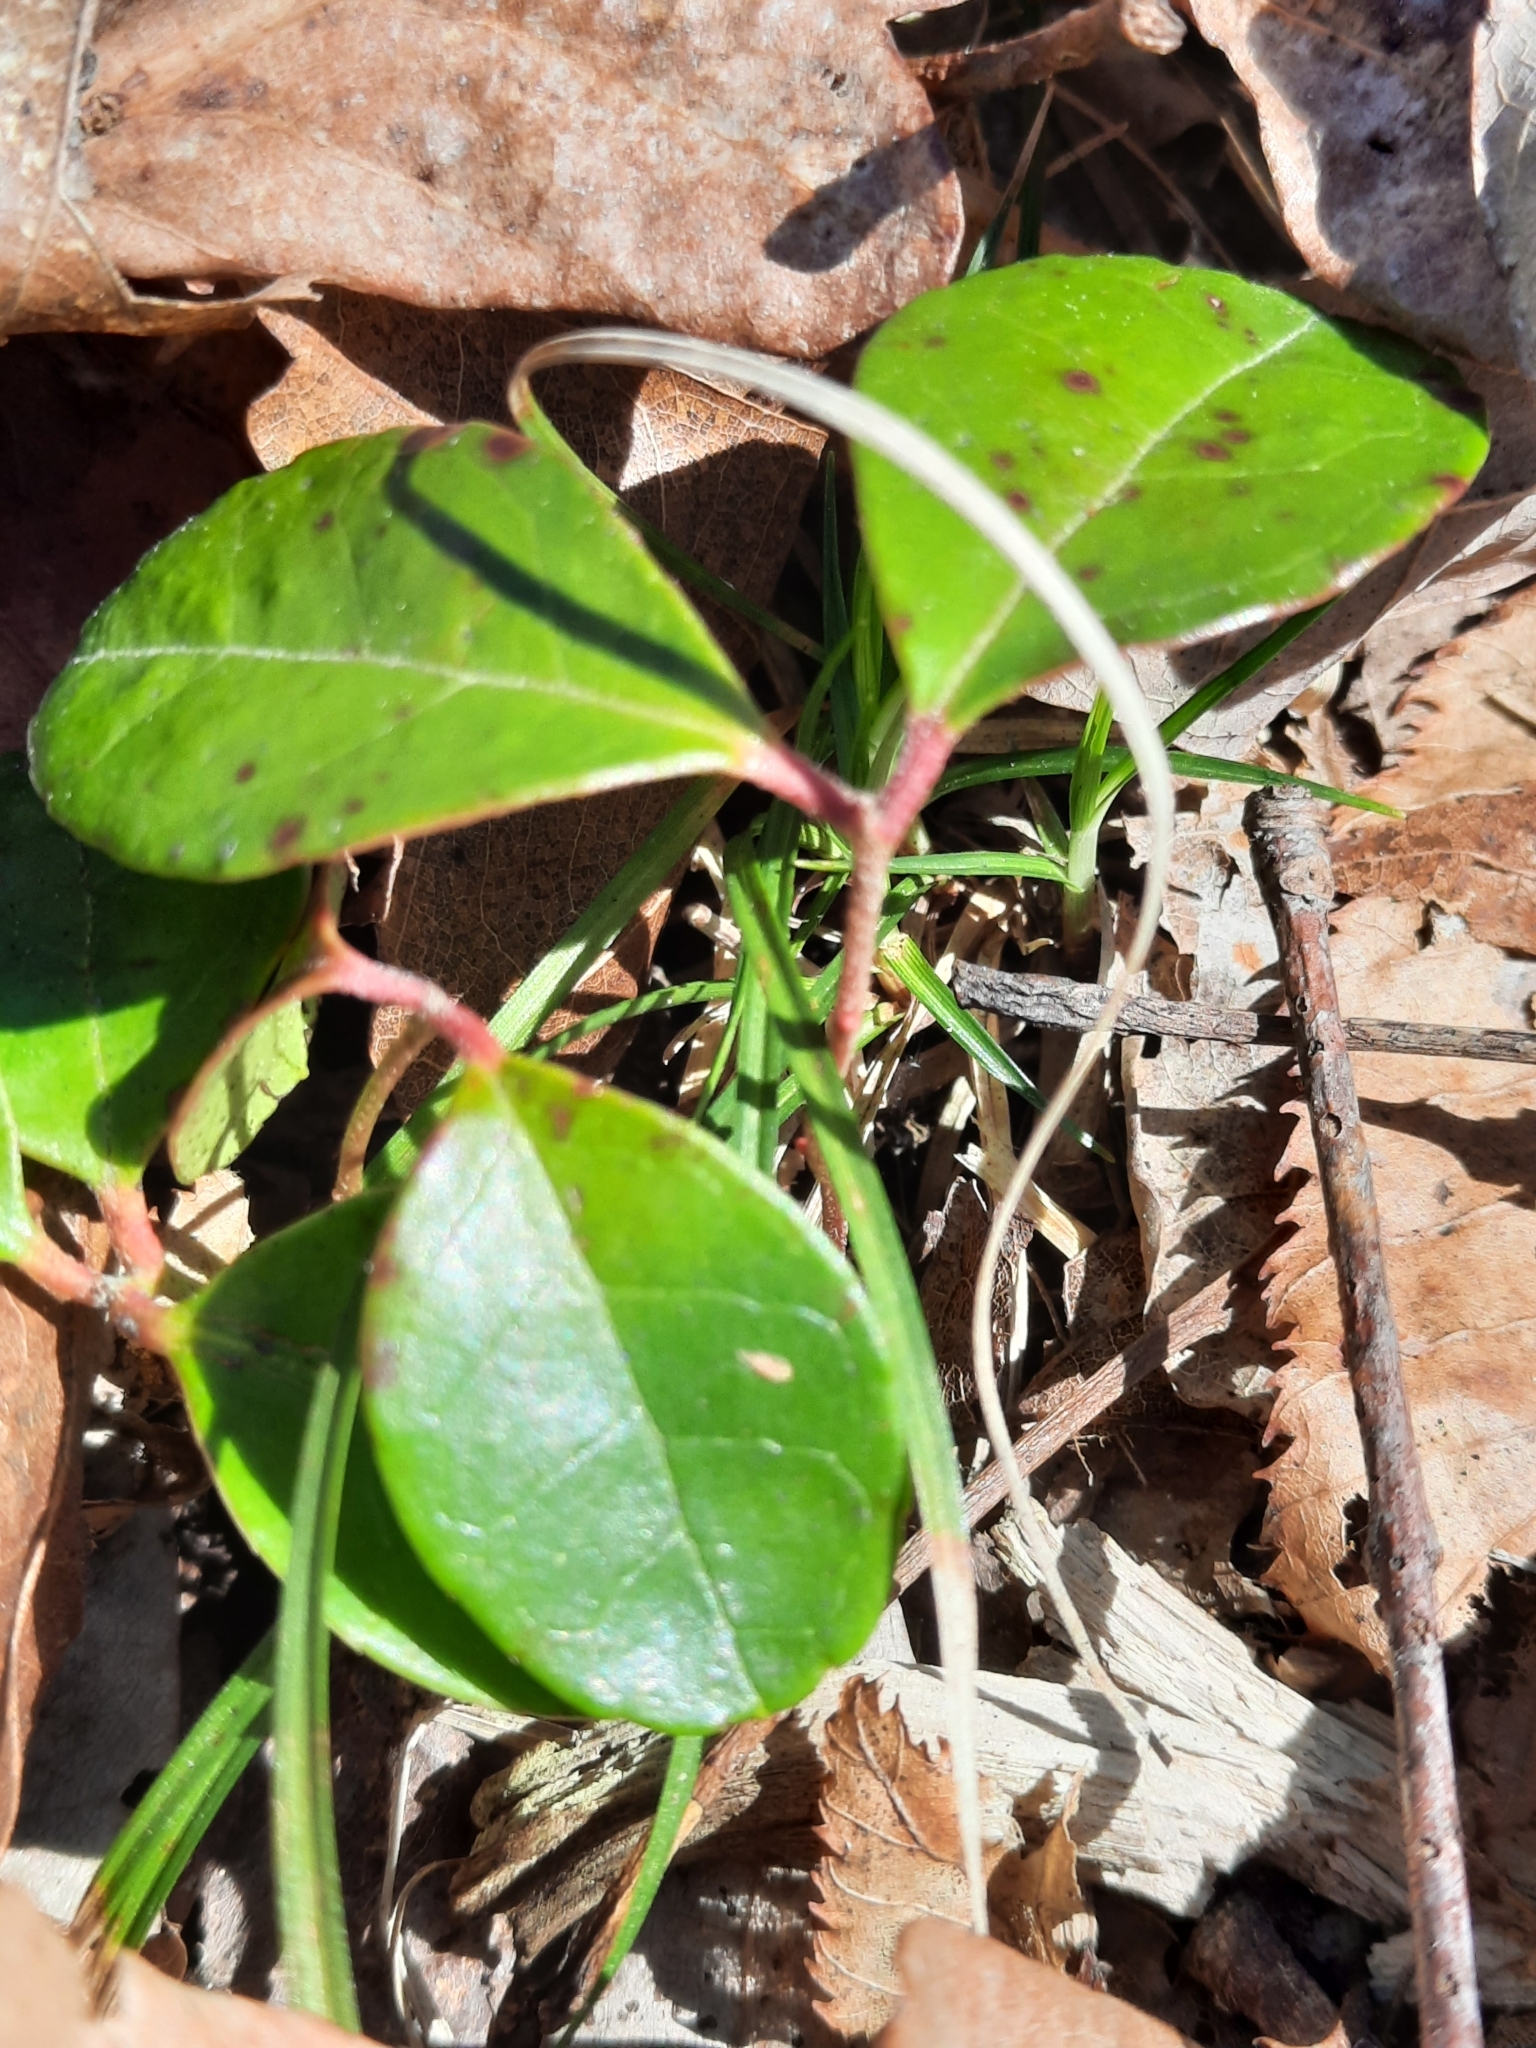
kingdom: Plantae
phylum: Tracheophyta
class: Magnoliopsida
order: Ericales
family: Ericaceae
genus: Gaultheria
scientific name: Gaultheria procumbens
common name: Checkerberry
